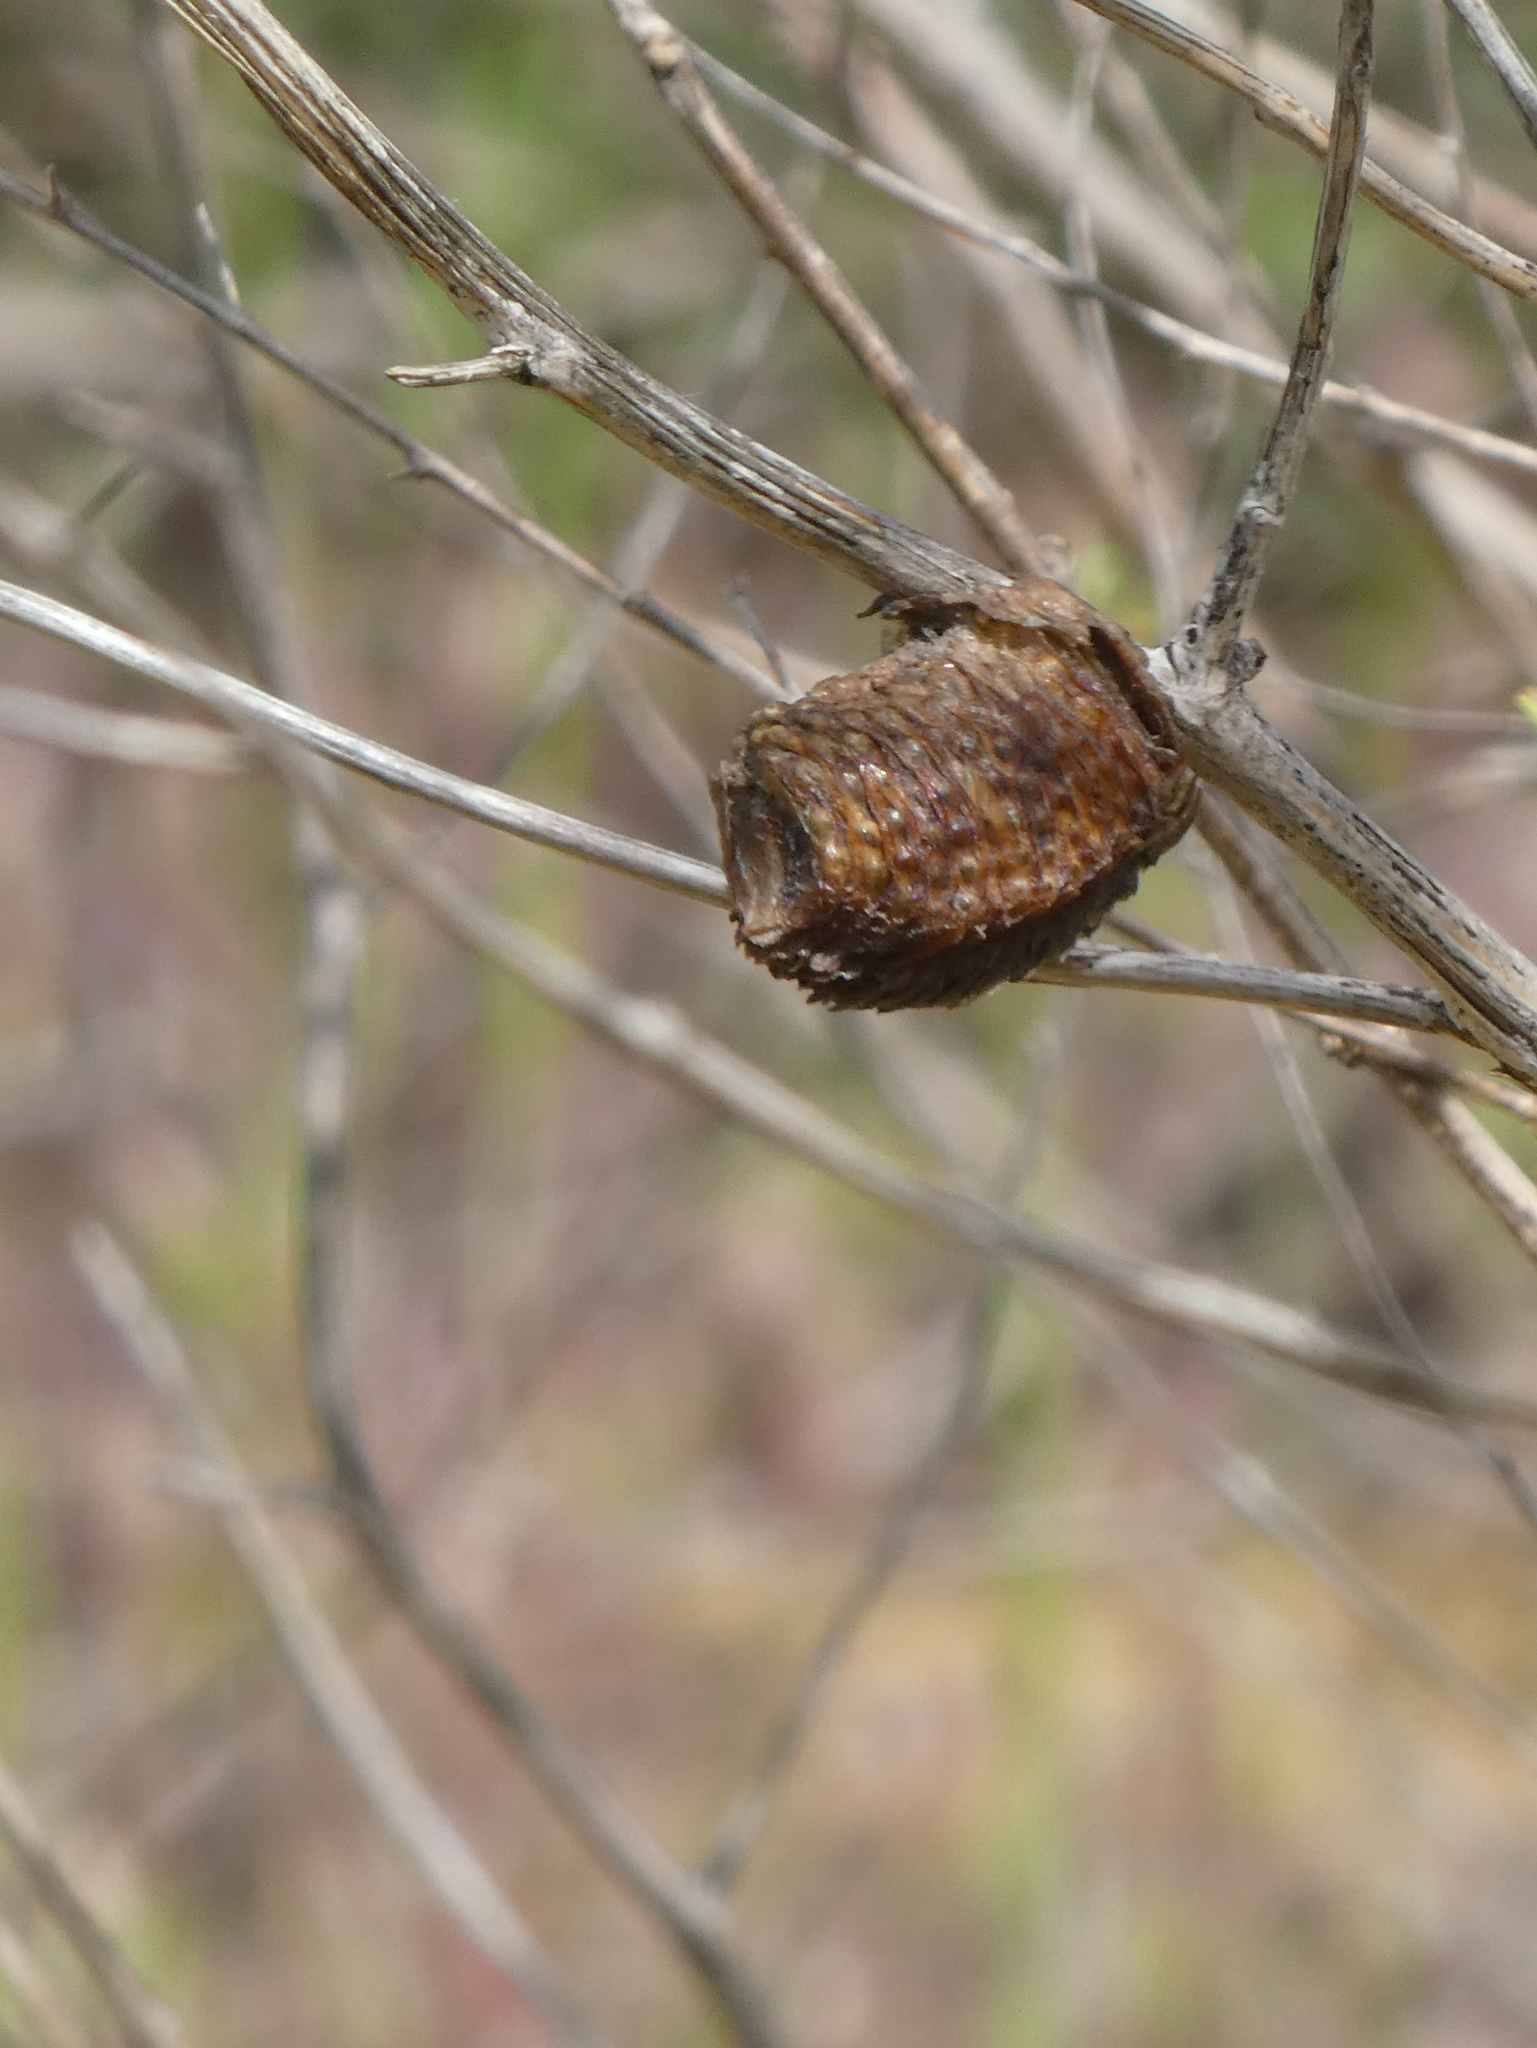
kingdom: Animalia
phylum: Arthropoda
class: Insecta
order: Mantodea
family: Mantidae
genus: Hierodula
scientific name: Hierodula transcaucasica
